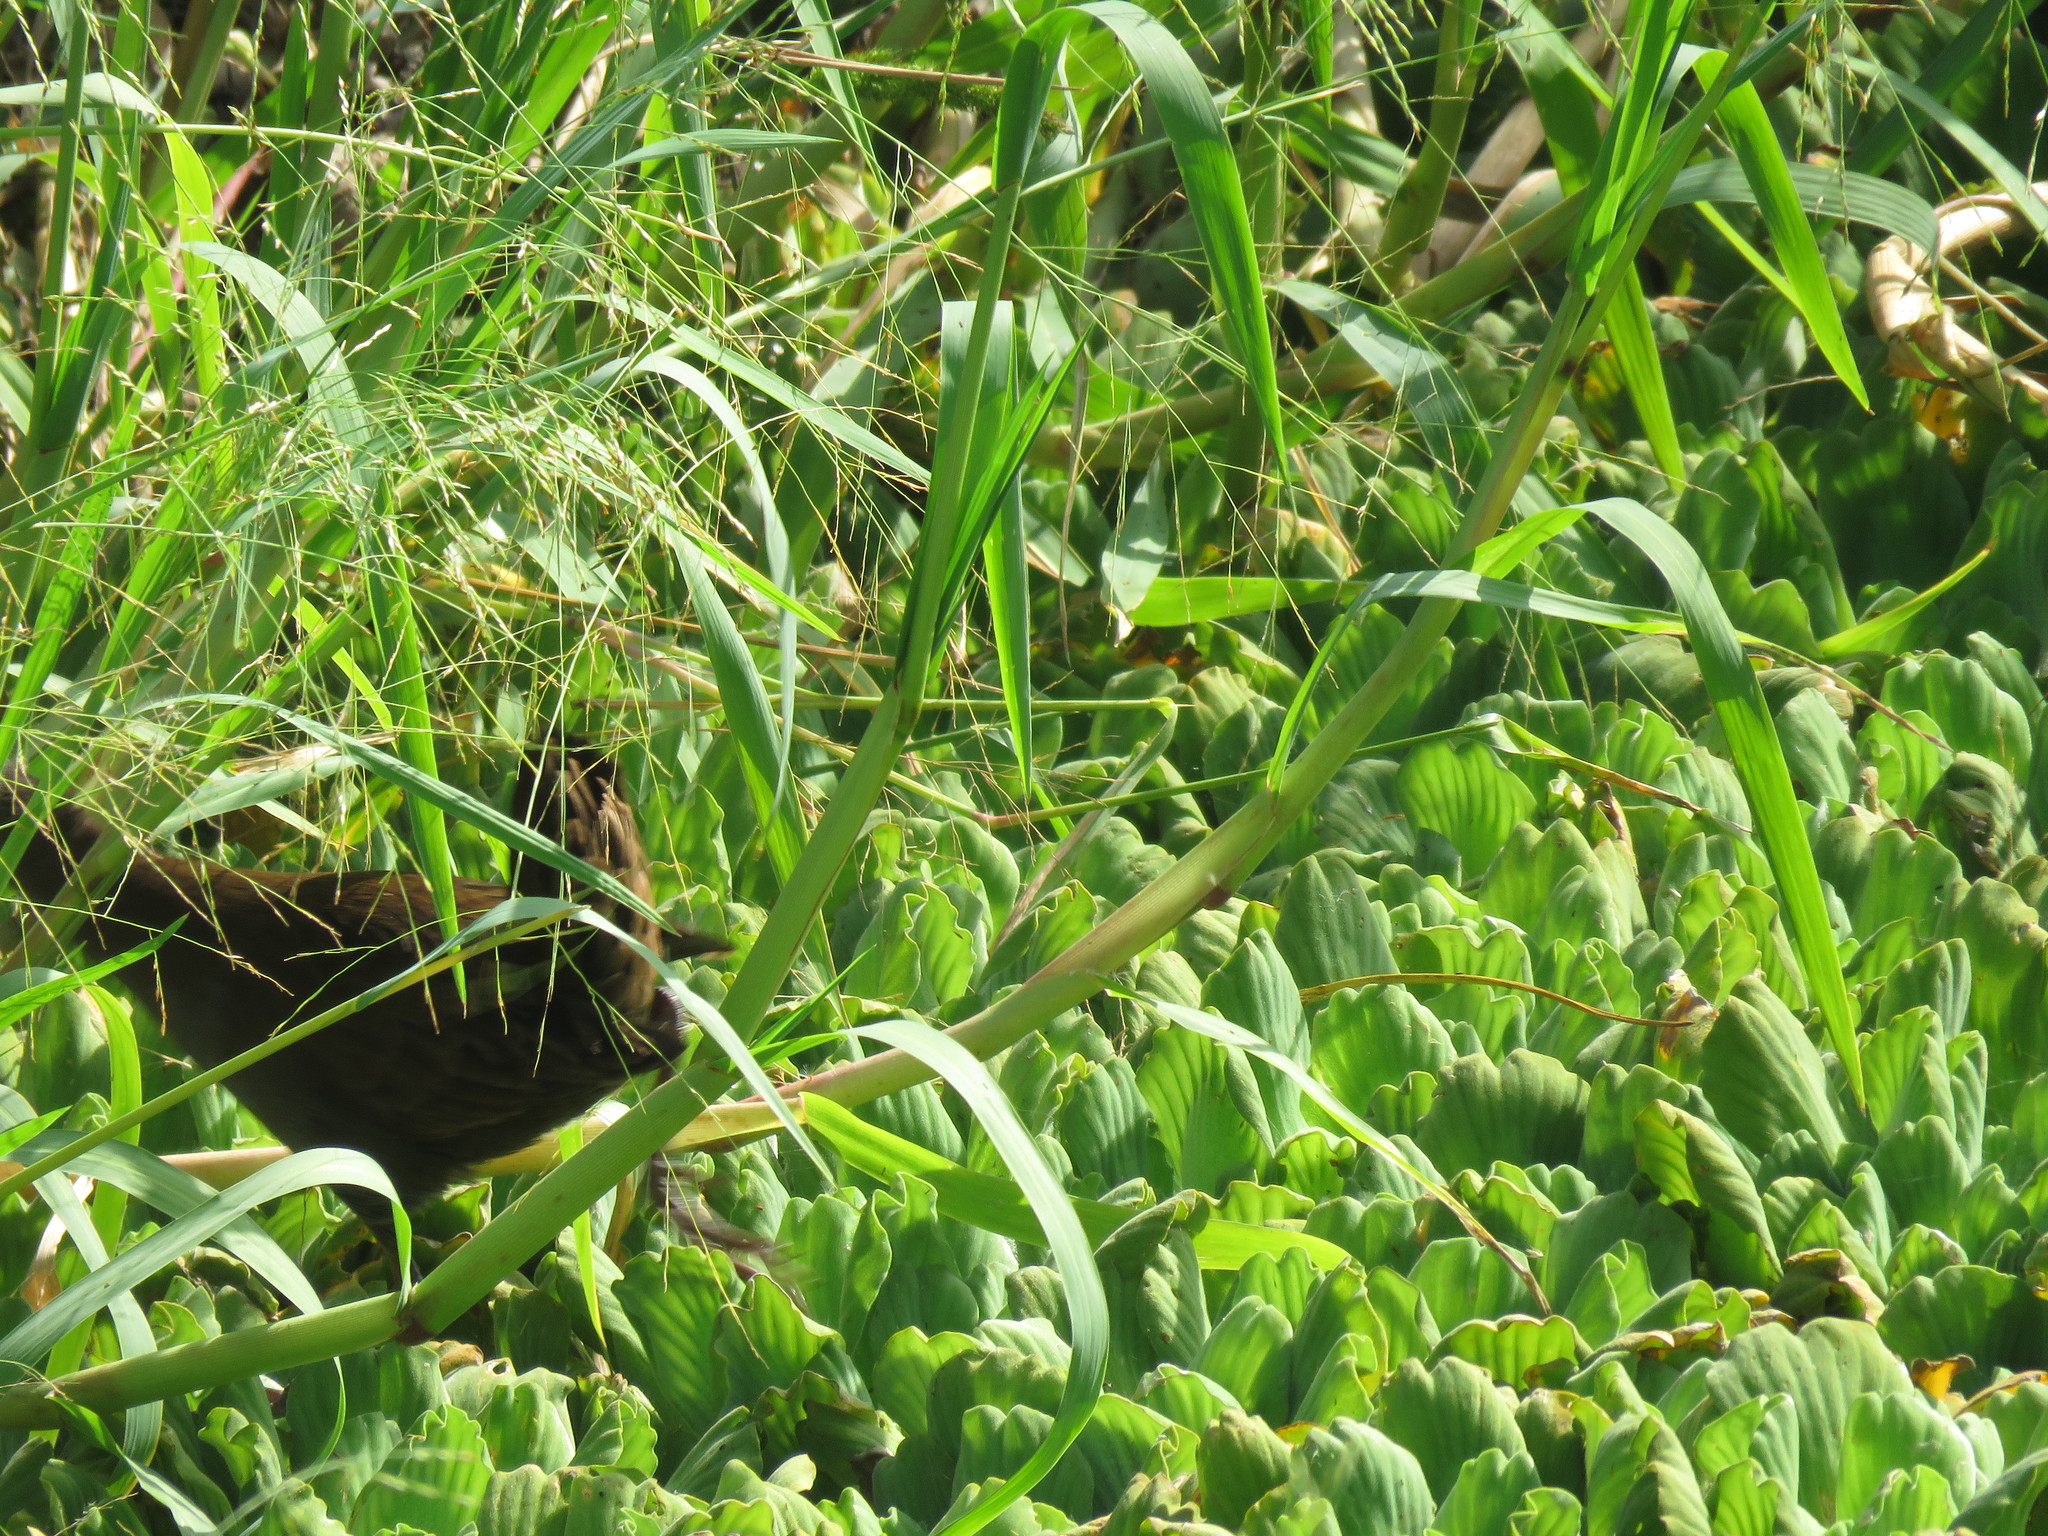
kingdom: Animalia
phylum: Chordata
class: Aves
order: Gruiformes
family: Rallidae
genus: Pardirallus
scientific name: Pardirallus sanguinolentus
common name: Plumbeous rail
